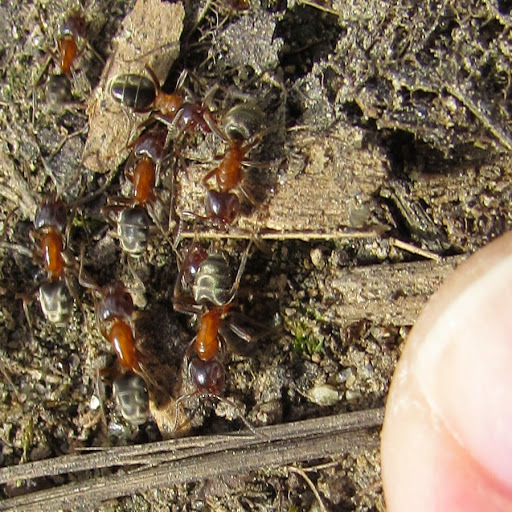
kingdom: Animalia
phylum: Arthropoda
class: Insecta
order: Hymenoptera
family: Formicidae
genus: Liometopum
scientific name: Liometopum occidentale
